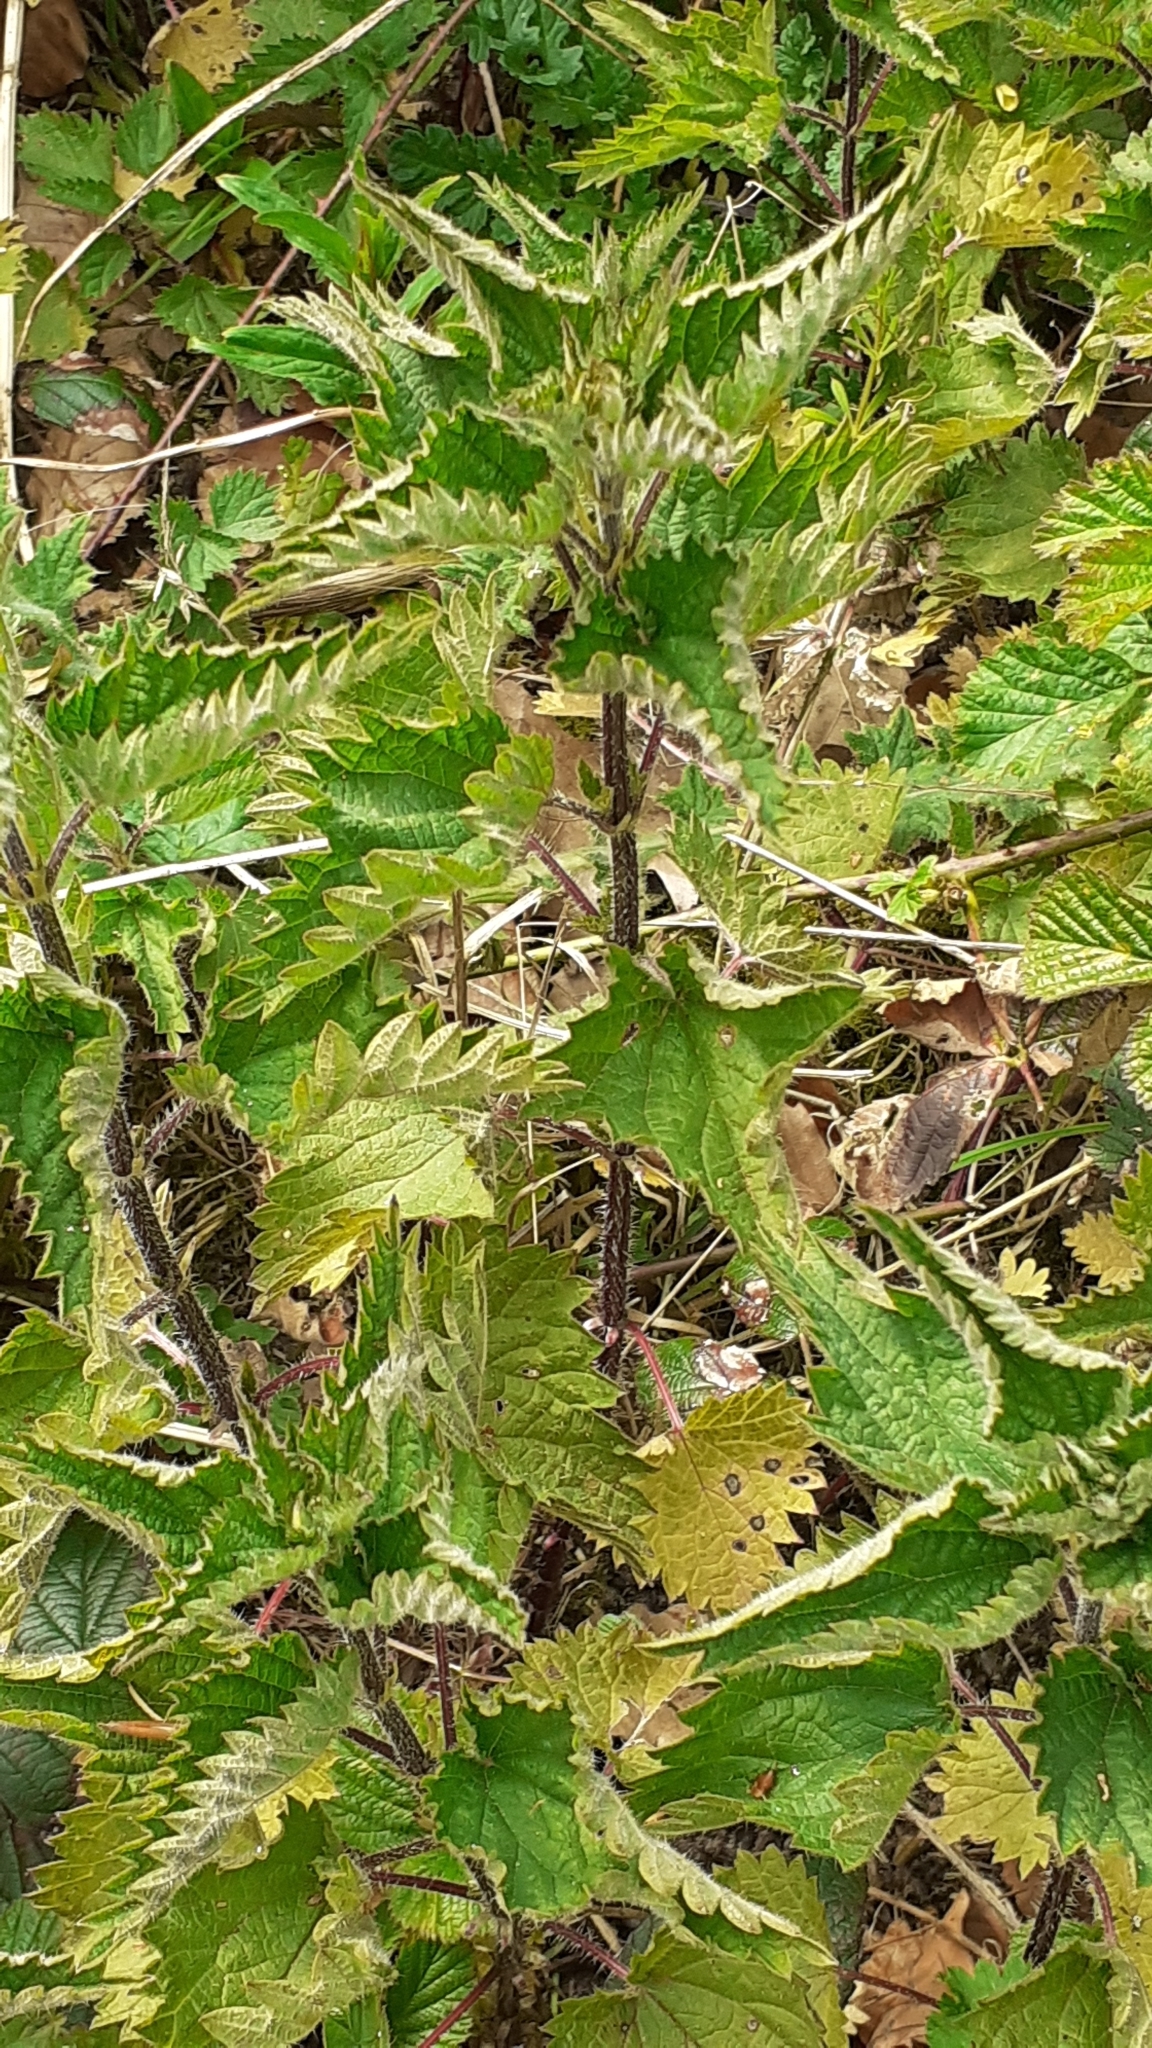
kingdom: Plantae
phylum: Tracheophyta
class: Magnoliopsida
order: Rosales
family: Urticaceae
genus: Urtica
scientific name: Urtica dioica
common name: Common nettle
